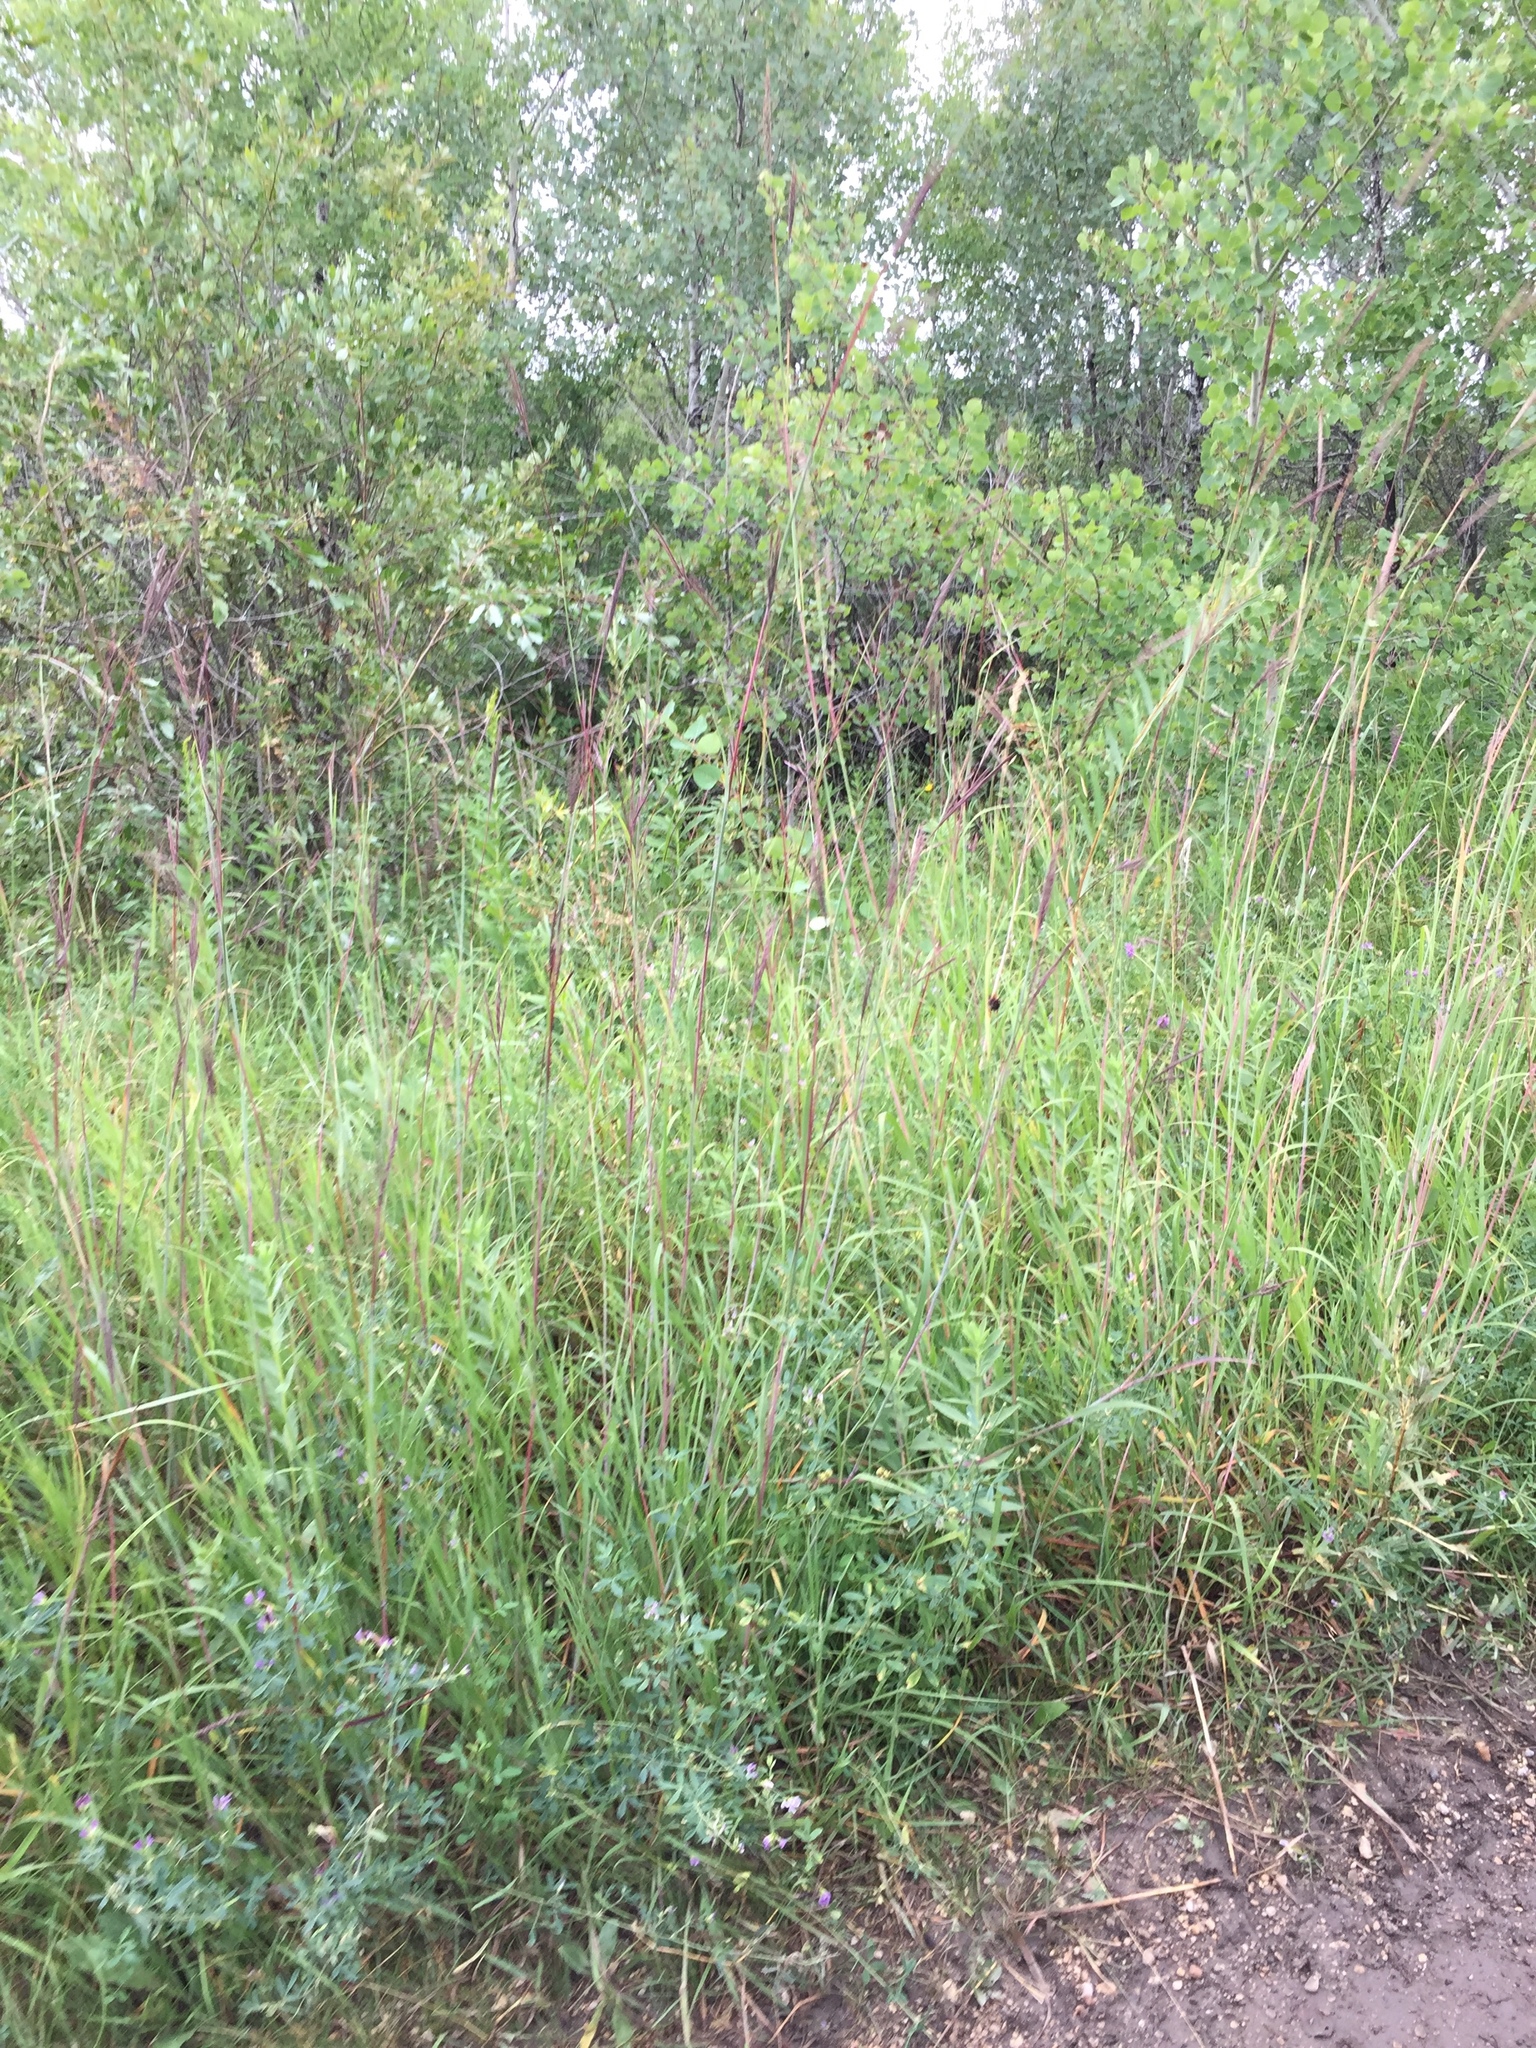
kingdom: Plantae
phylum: Tracheophyta
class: Liliopsida
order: Poales
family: Poaceae
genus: Andropogon
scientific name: Andropogon gerardi
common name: Big bluestem
